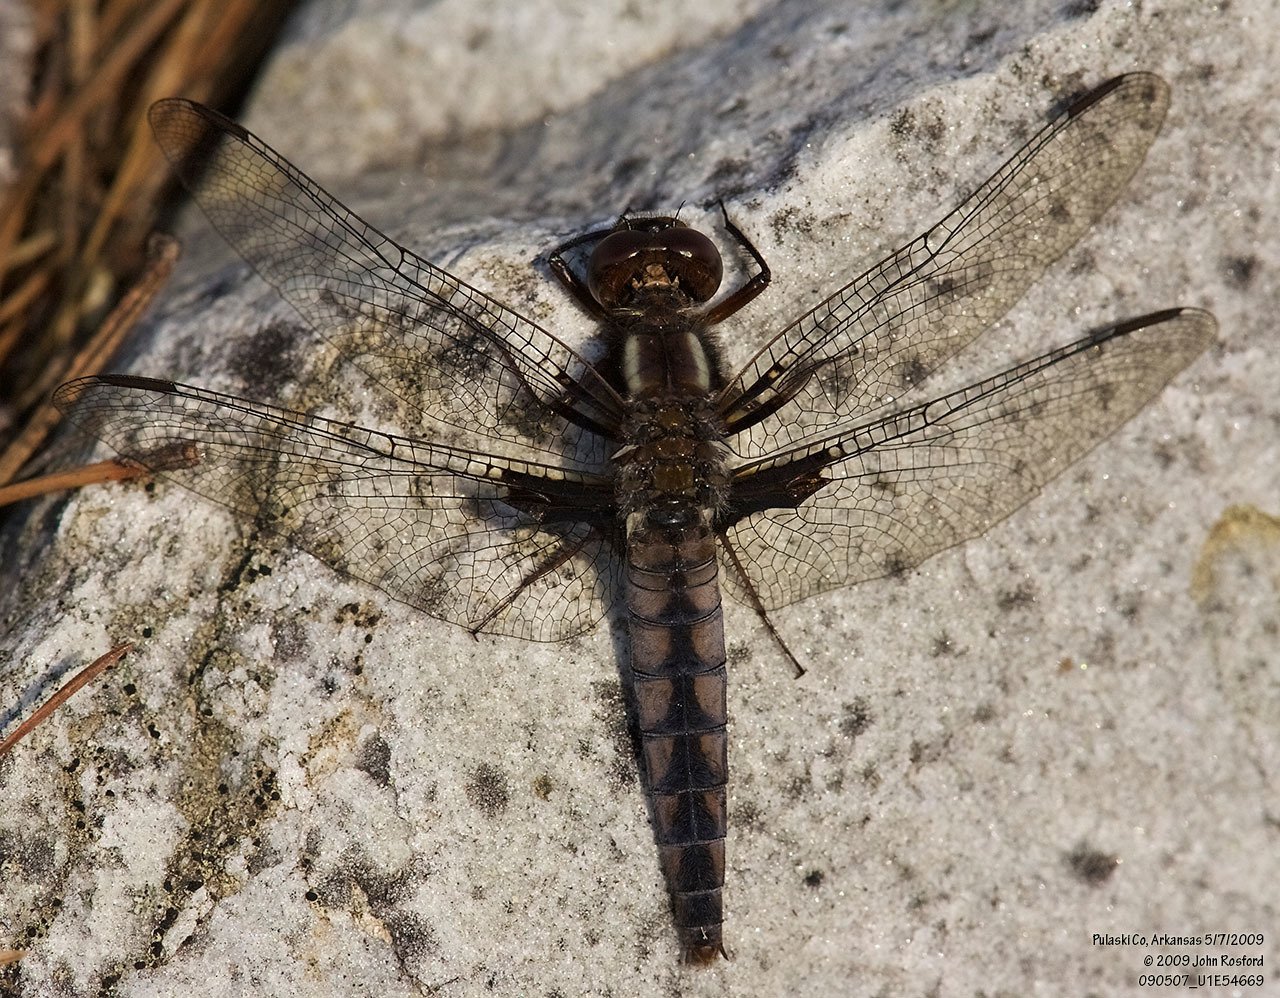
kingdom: Animalia
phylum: Arthropoda
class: Insecta
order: Odonata
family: Libellulidae
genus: Ladona
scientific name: Ladona deplanata
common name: Blue corporal
